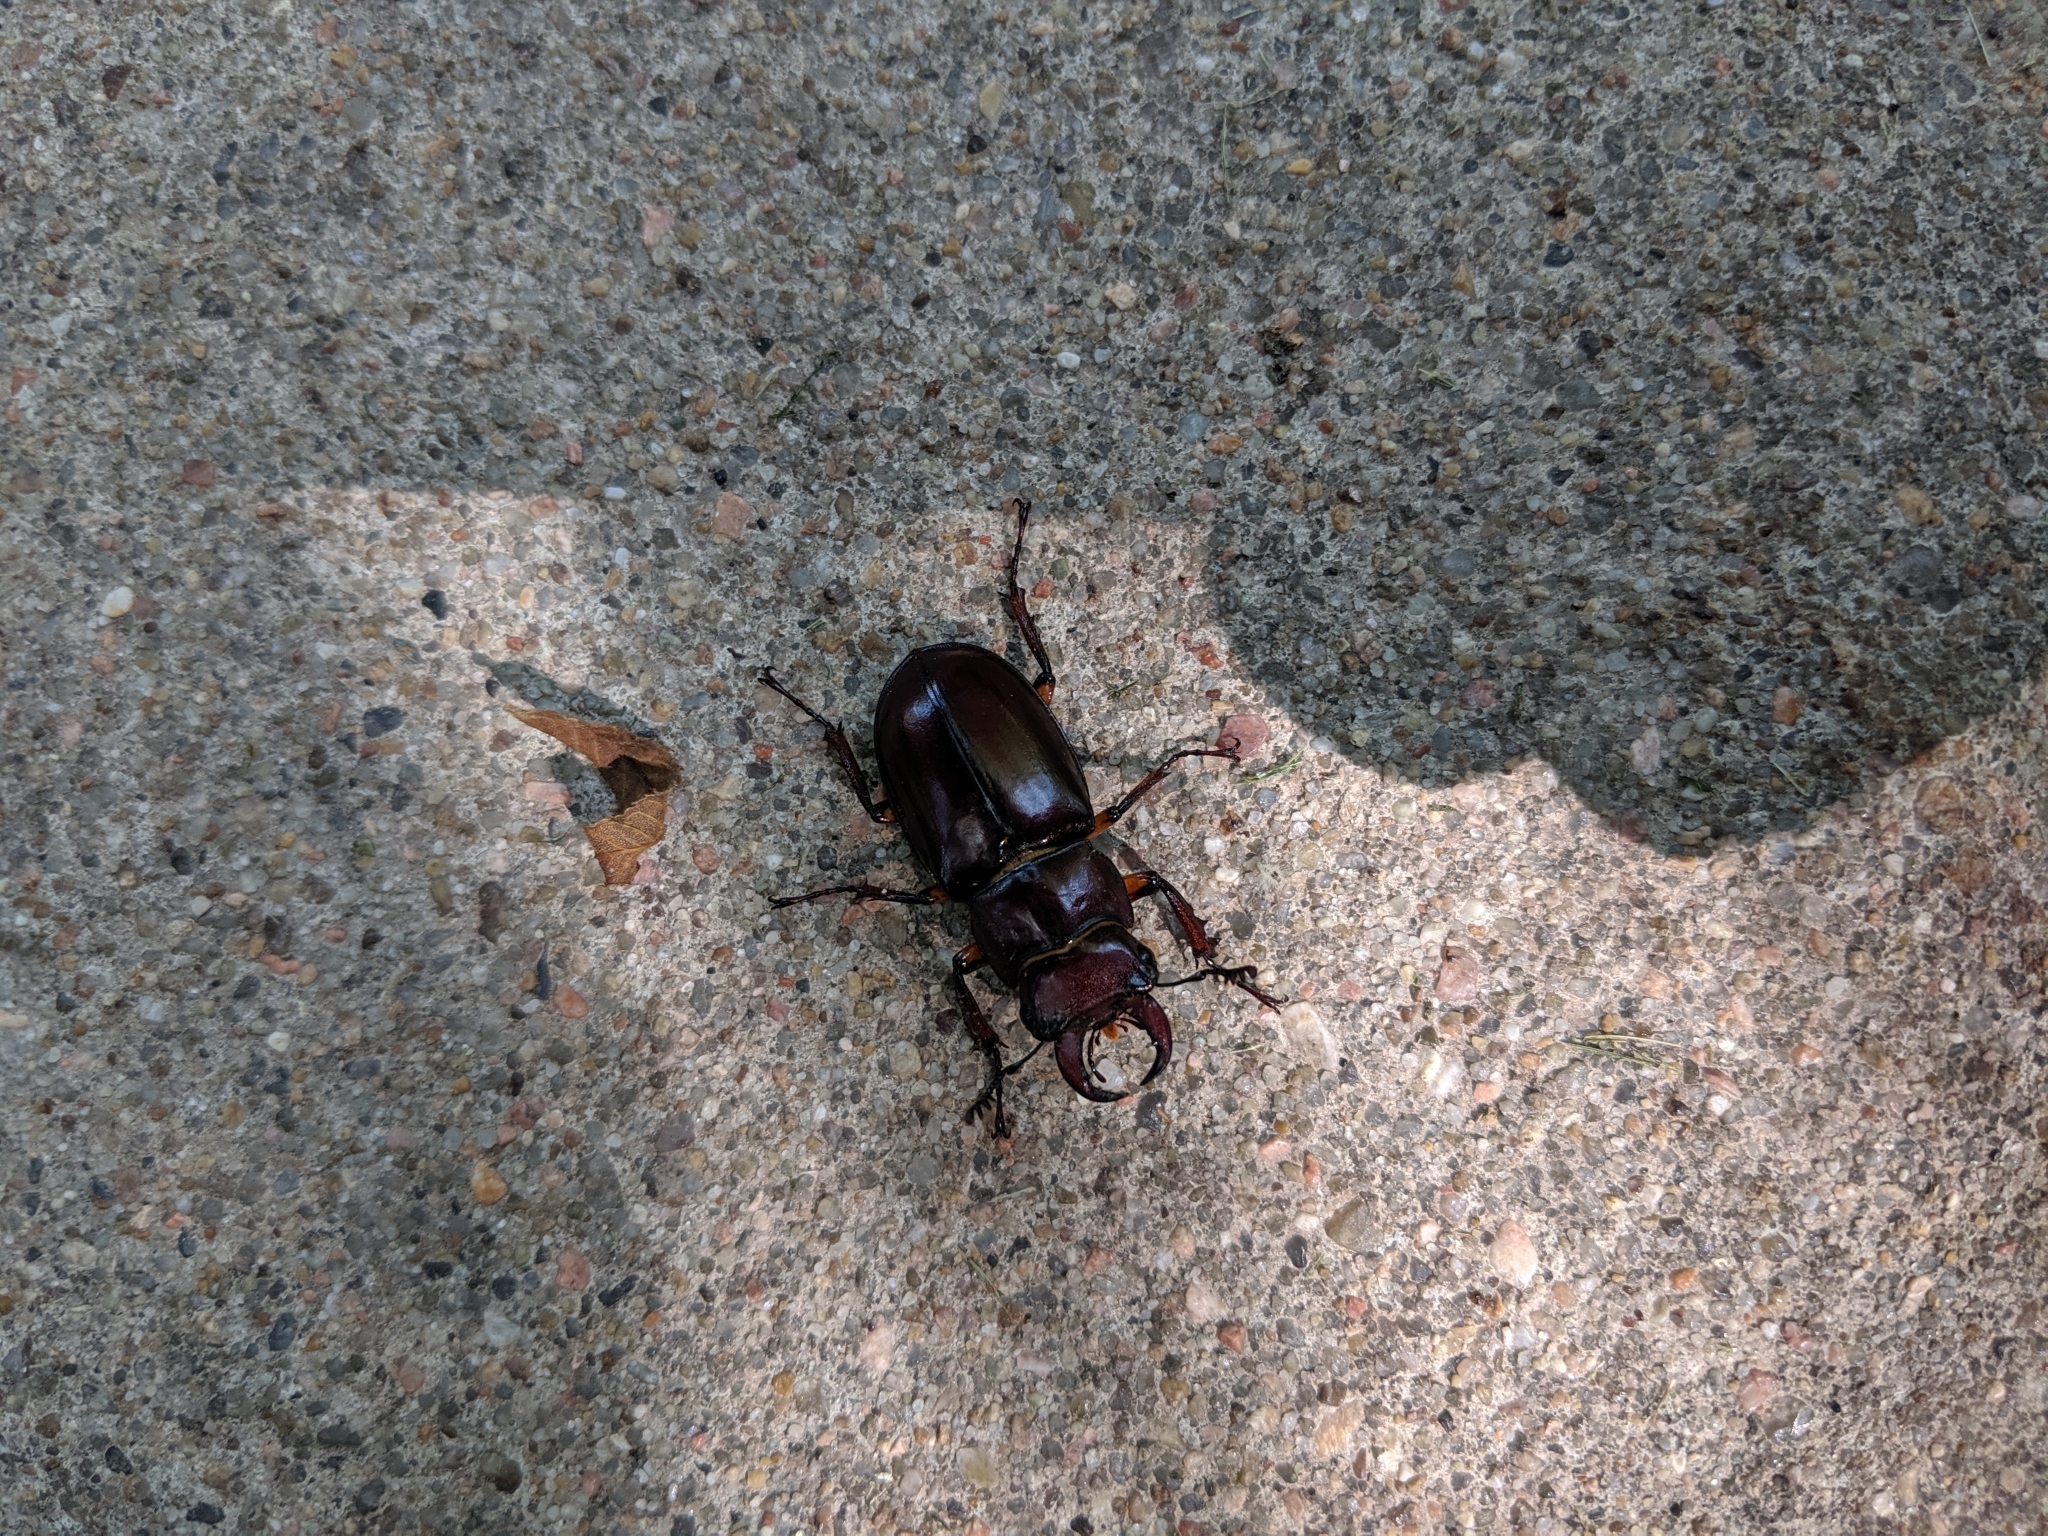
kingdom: Animalia
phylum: Arthropoda
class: Insecta
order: Coleoptera
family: Lucanidae
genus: Lucanus
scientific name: Lucanus capreolus
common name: Stag beetle
